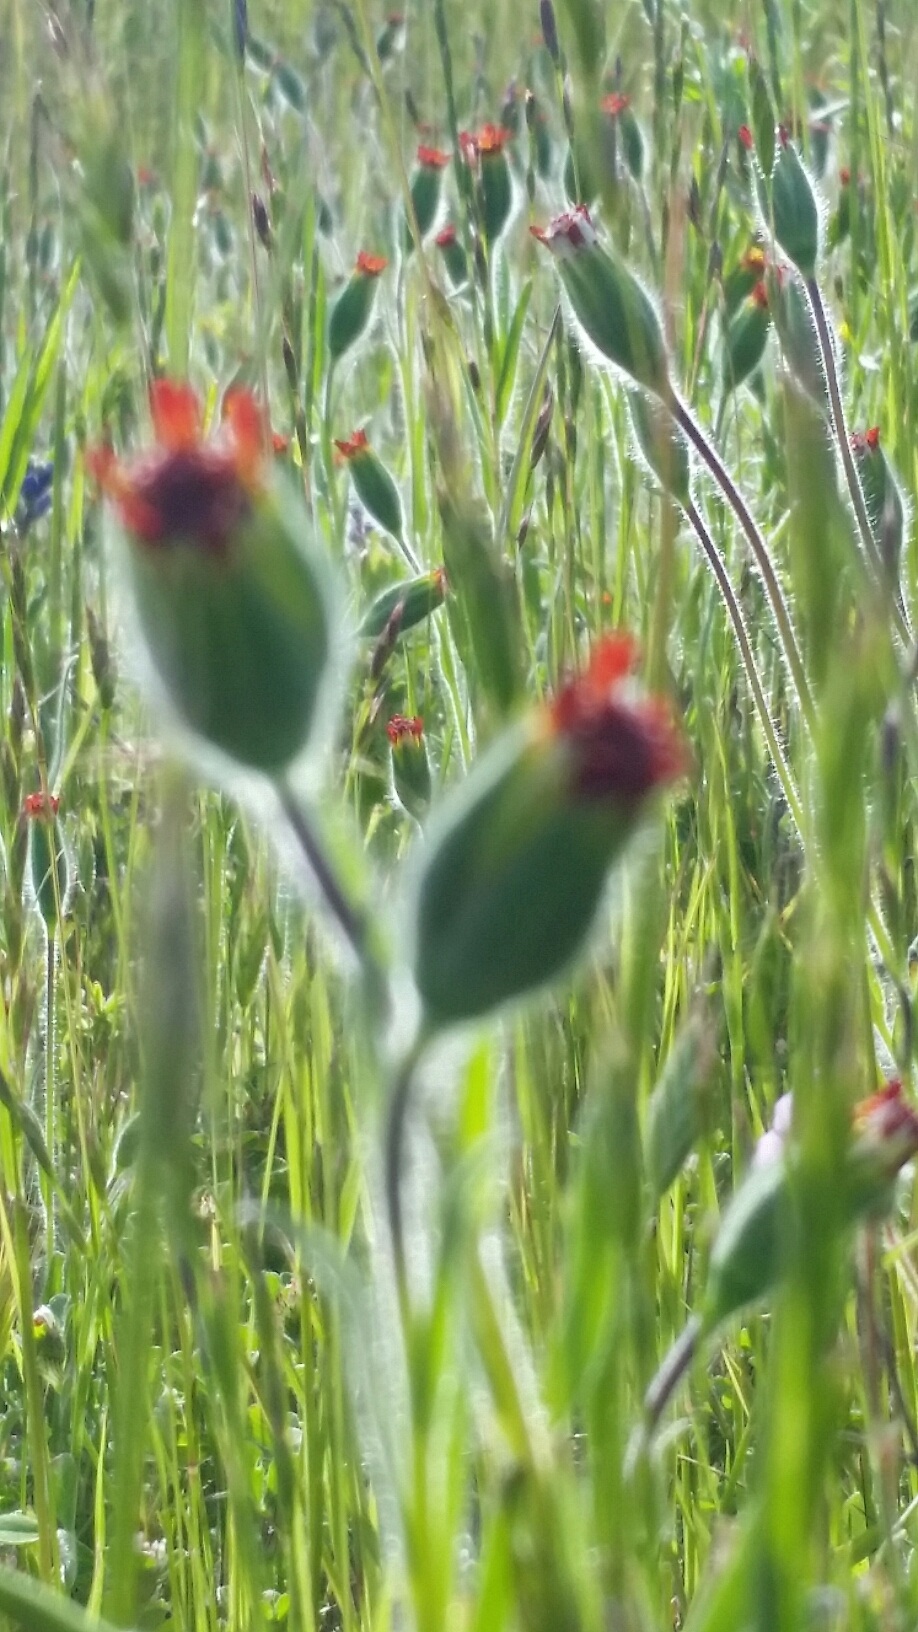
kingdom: Plantae
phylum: Tracheophyta
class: Magnoliopsida
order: Asterales
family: Asteraceae
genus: Achyrachaena
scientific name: Achyrachaena mollis
